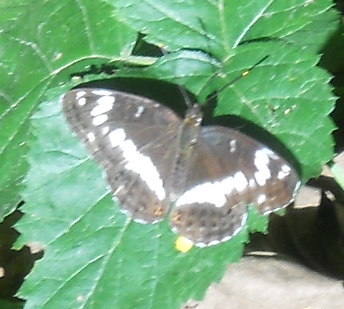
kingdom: Animalia
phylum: Arthropoda
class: Insecta
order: Lepidoptera
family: Nymphalidae
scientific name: Nymphalidae
